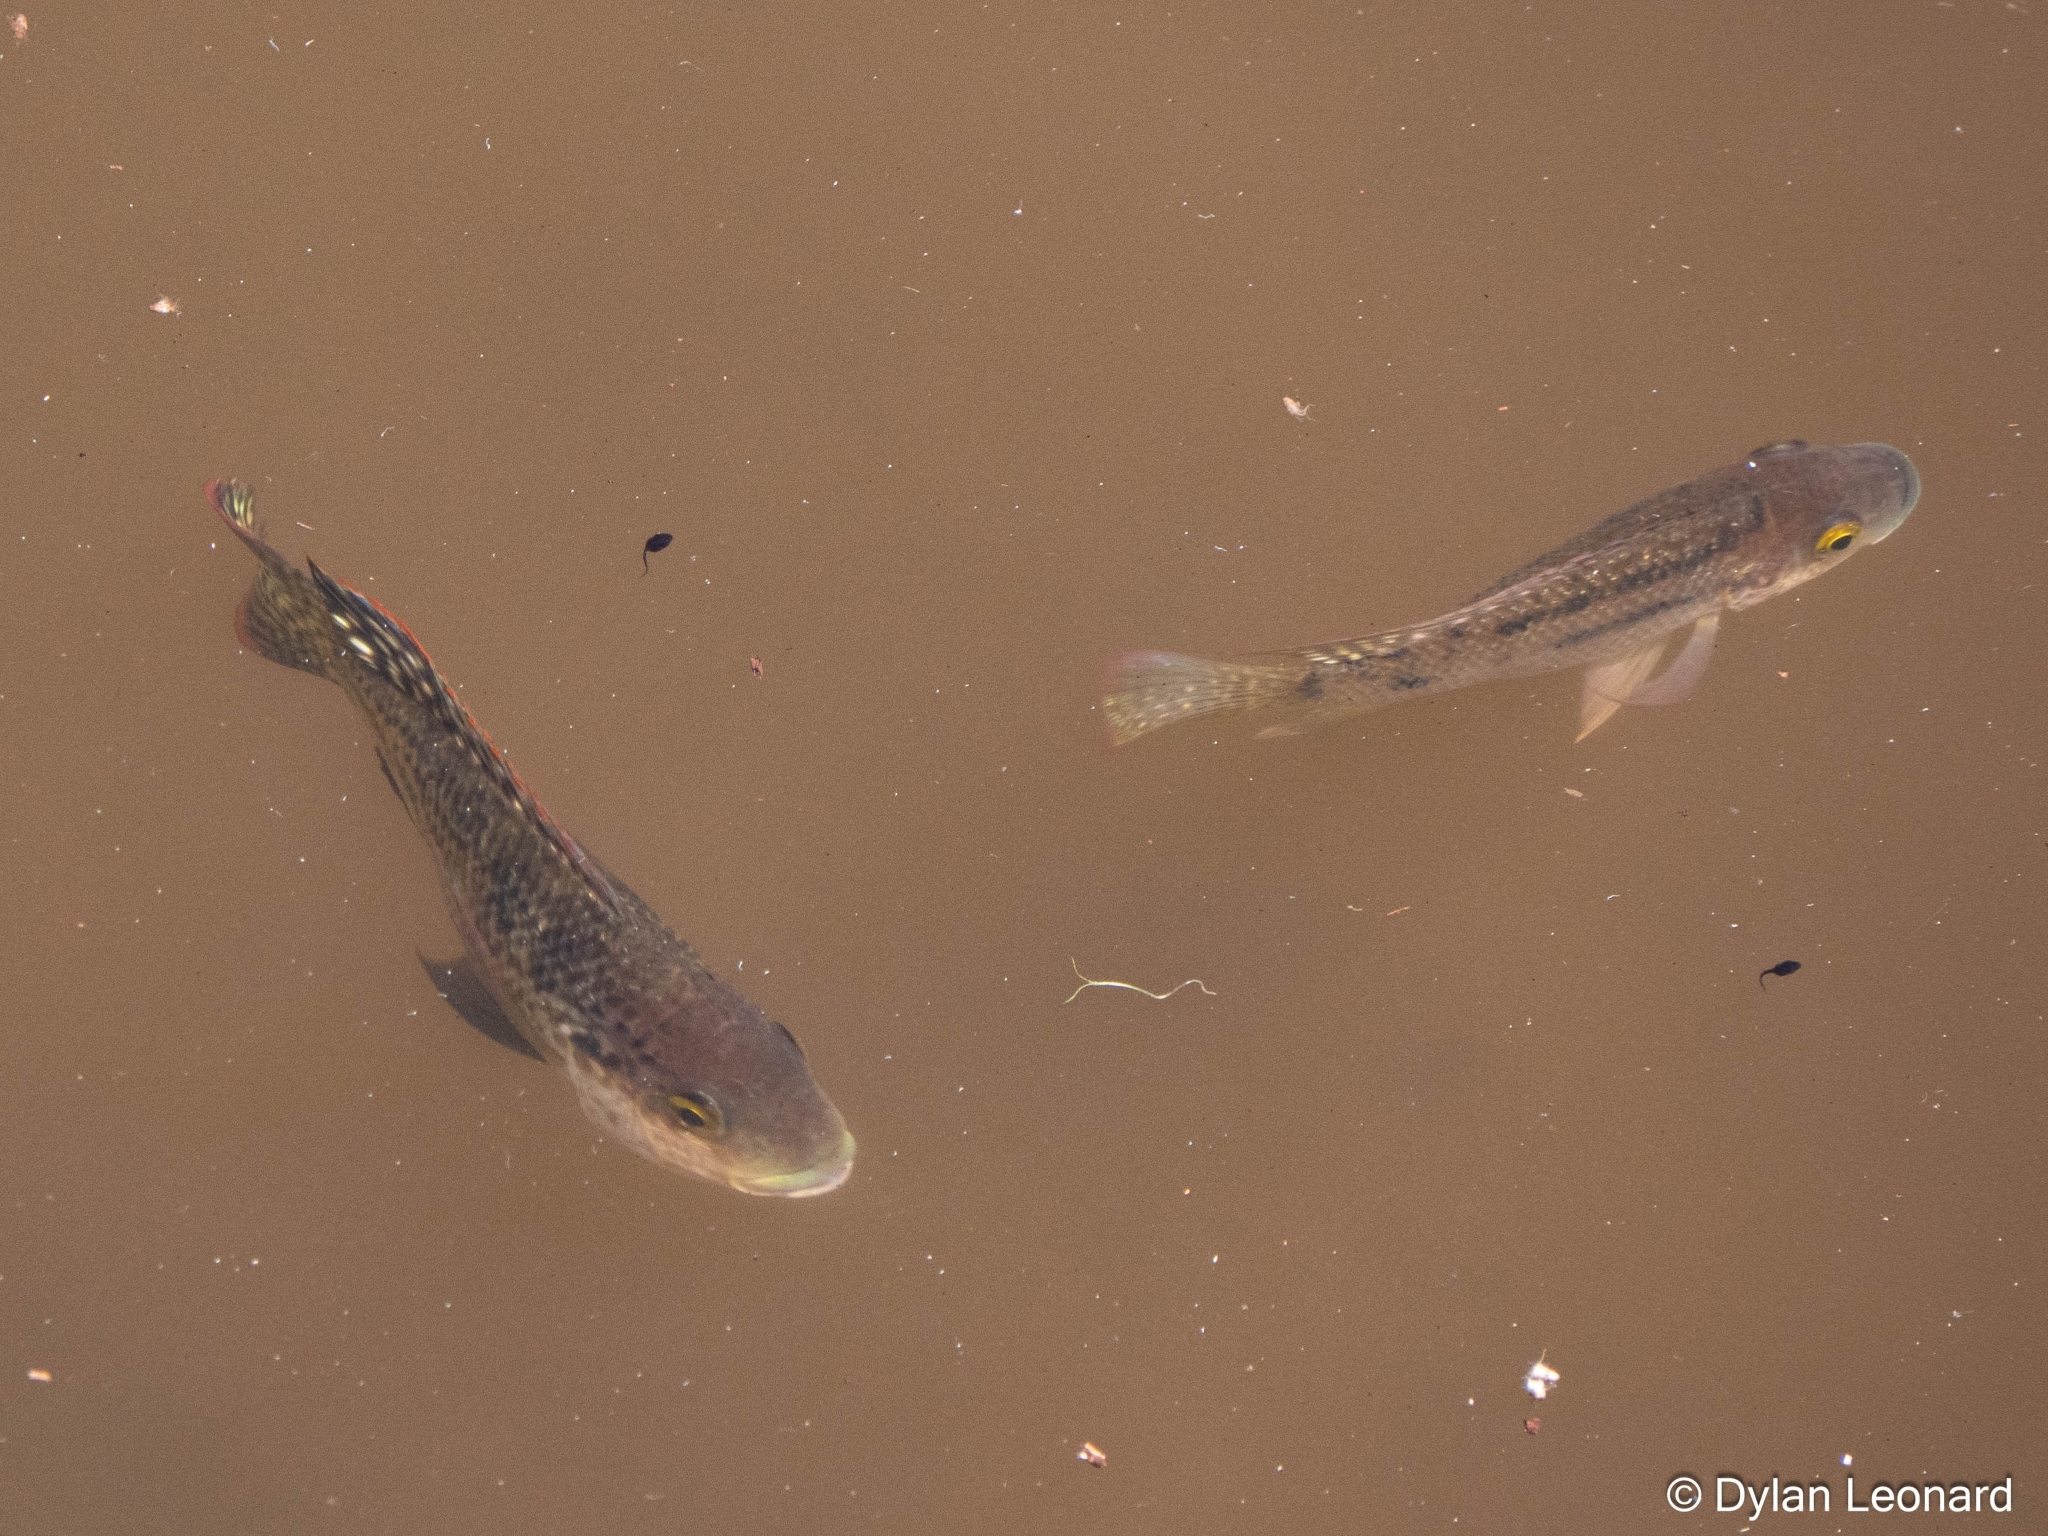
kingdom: Animalia
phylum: Chordata
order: Perciformes
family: Cichlidae
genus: Oreochromis
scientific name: Oreochromis mossambicus
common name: Mozambique tilapia
